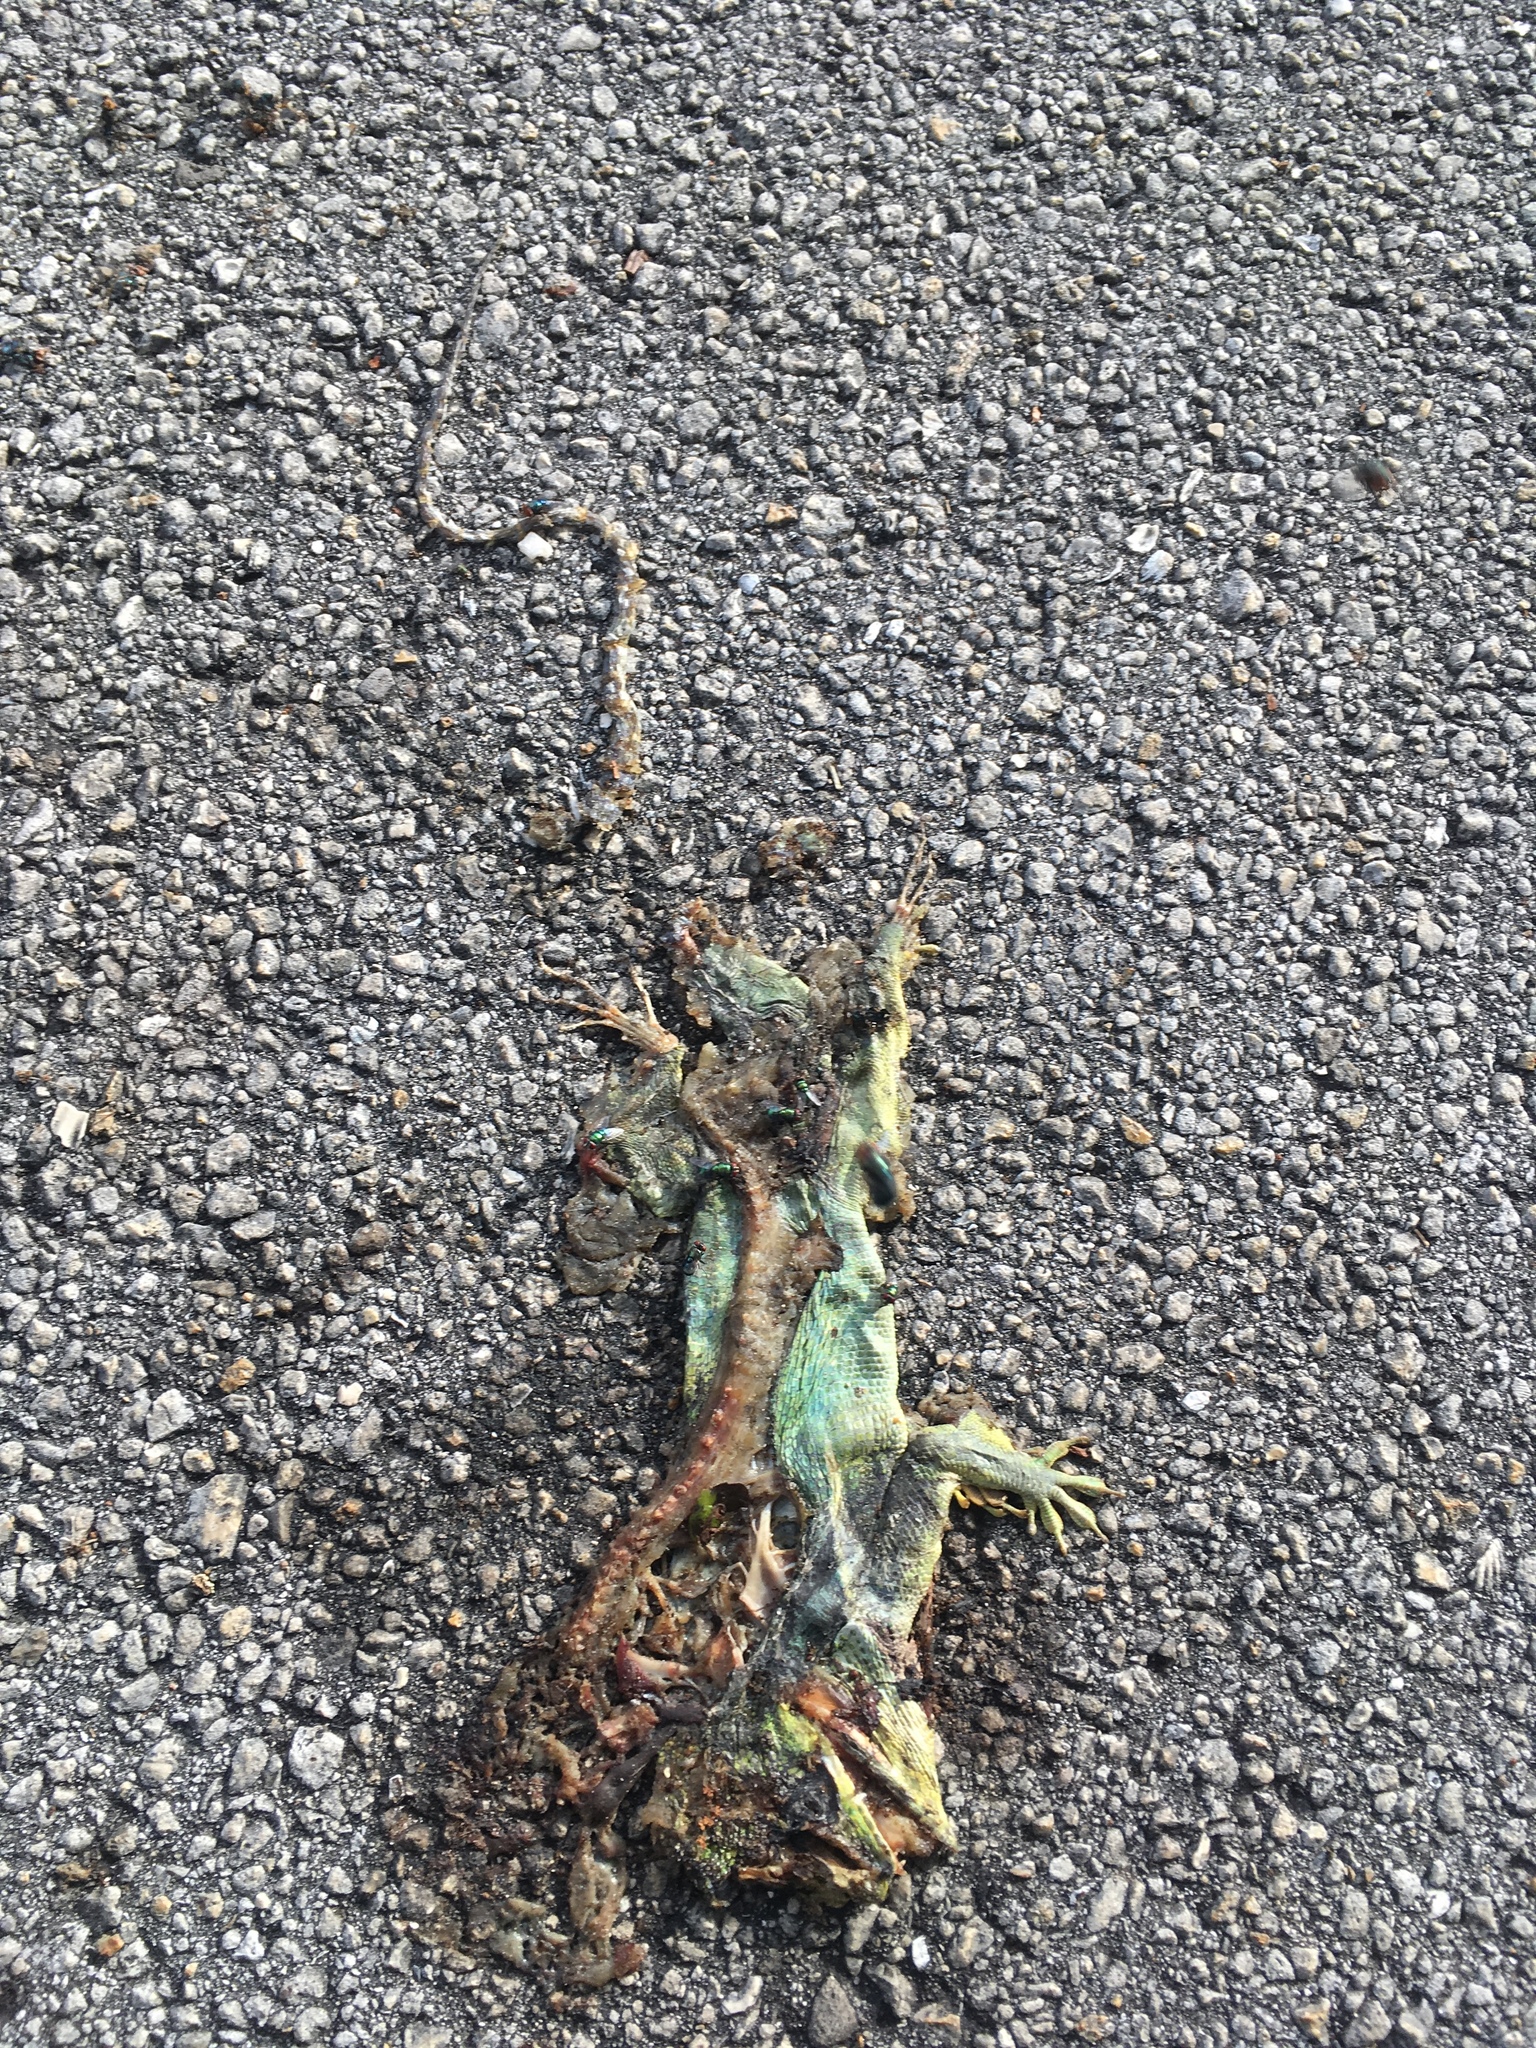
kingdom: Animalia
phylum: Chordata
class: Squamata
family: Dactyloidae
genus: Anolis
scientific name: Anolis equestris
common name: Knight anole
